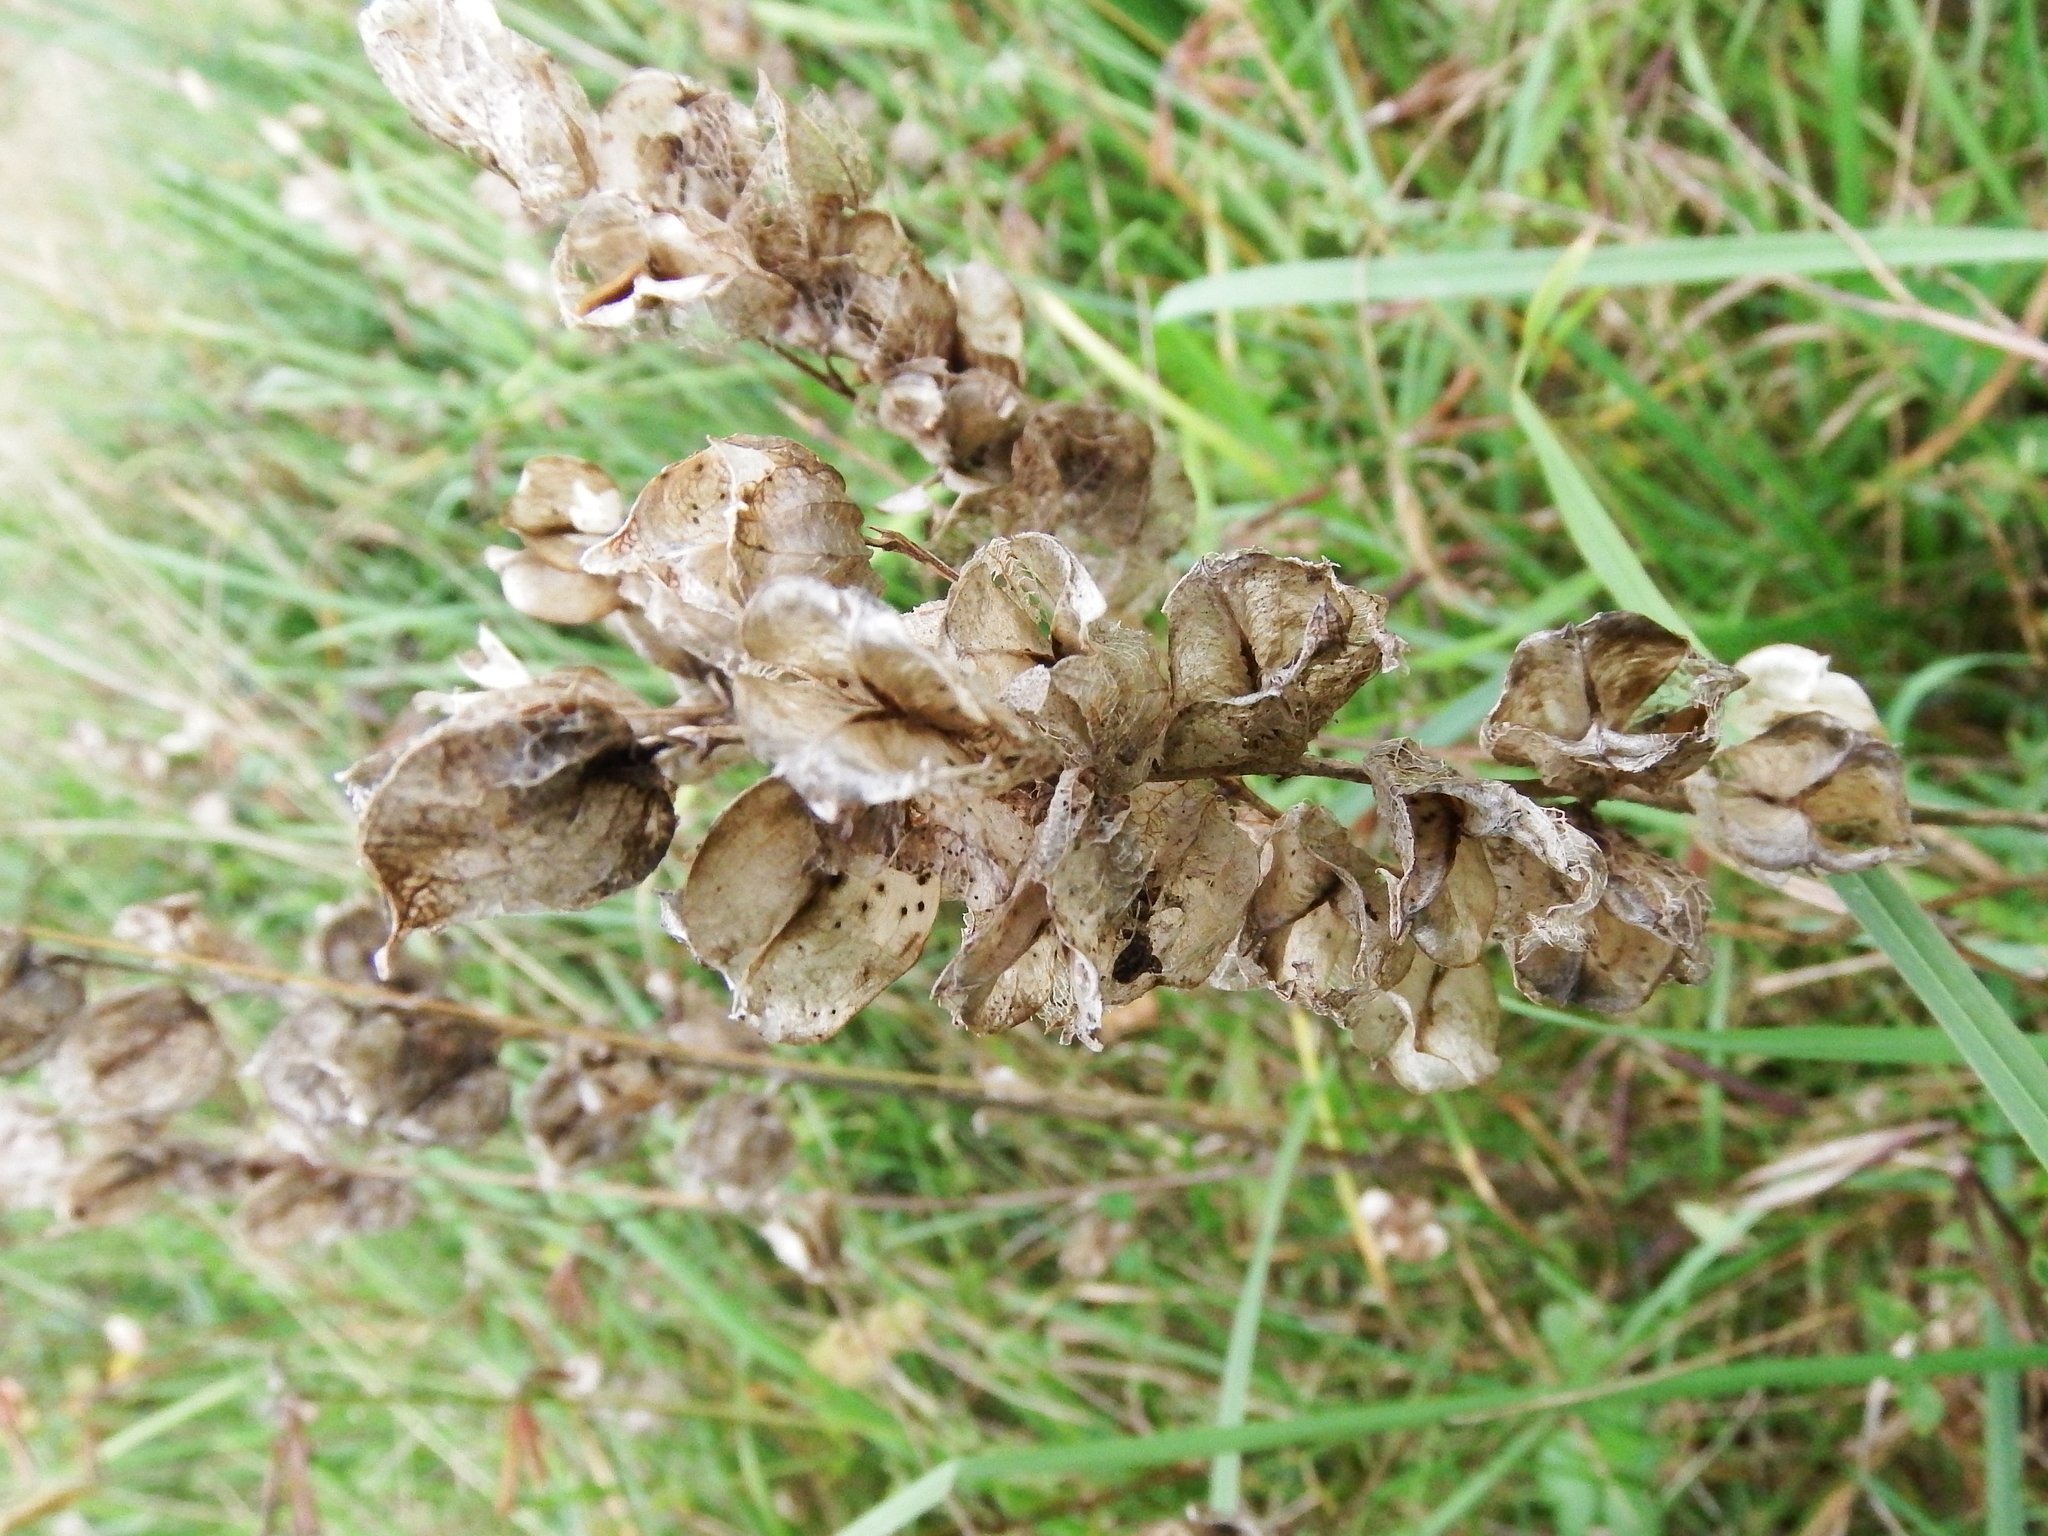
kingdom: Plantae
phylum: Tracheophyta
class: Magnoliopsida
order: Lamiales
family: Orobanchaceae
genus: Rhinanthus
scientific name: Rhinanthus minor
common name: Yellow-rattle
